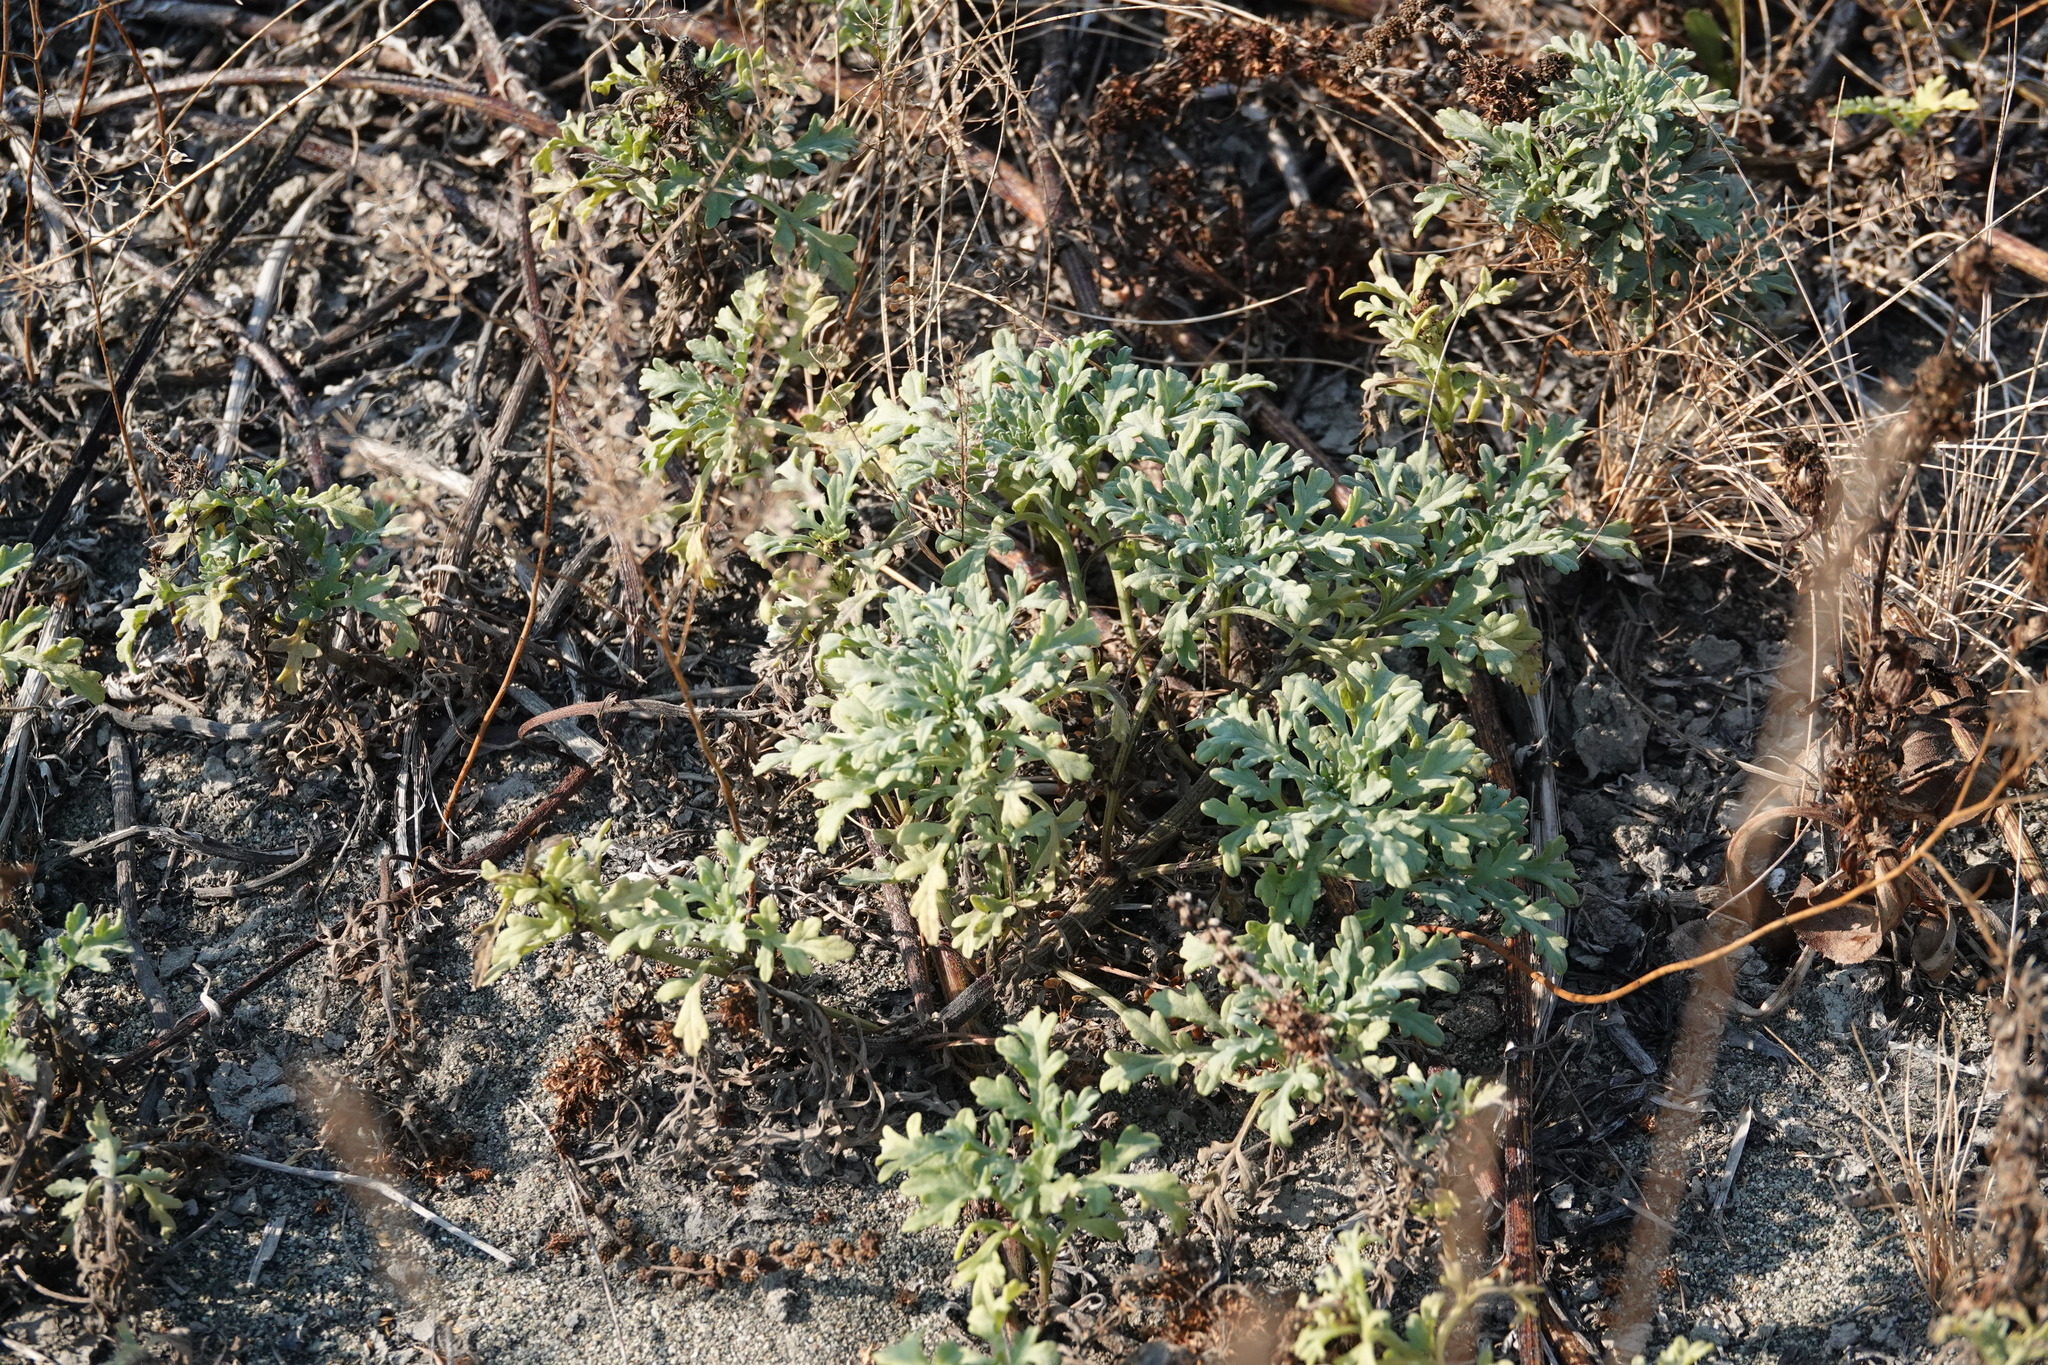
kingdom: Plantae
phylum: Tracheophyta
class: Magnoliopsida
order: Asterales
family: Asteraceae
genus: Ambrosia
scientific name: Ambrosia chamissonis
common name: Beachbur
